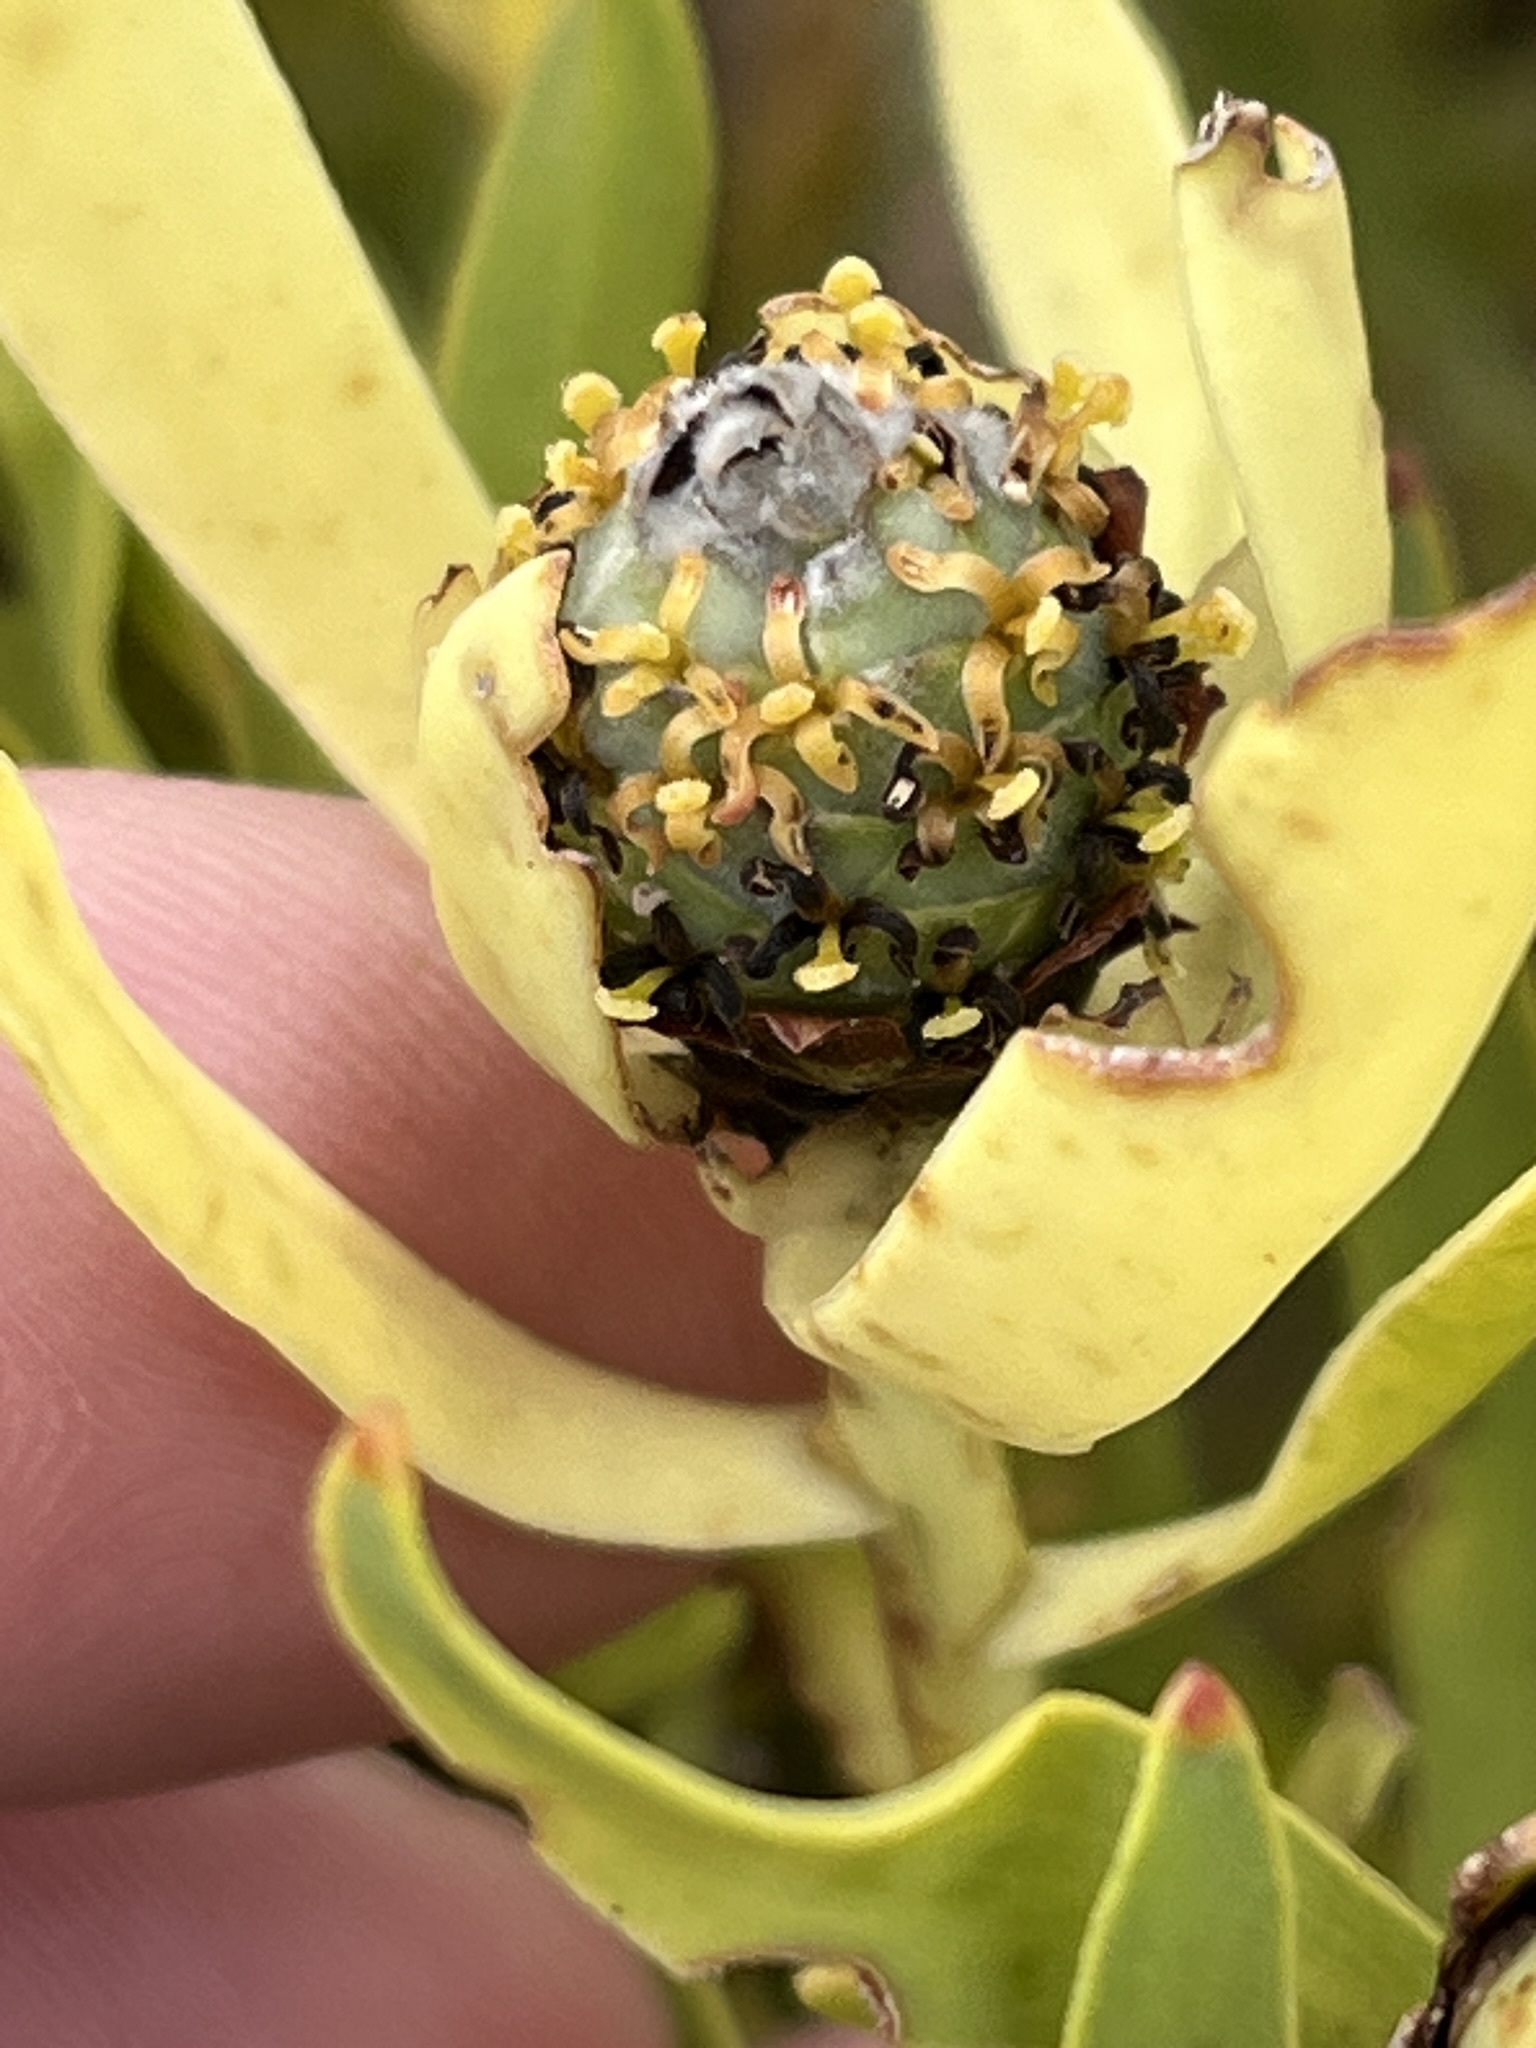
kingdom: Plantae
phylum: Tracheophyta
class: Magnoliopsida
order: Proteales
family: Proteaceae
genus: Leucadendron
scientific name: Leucadendron salignum
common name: Common sunshine conebush
